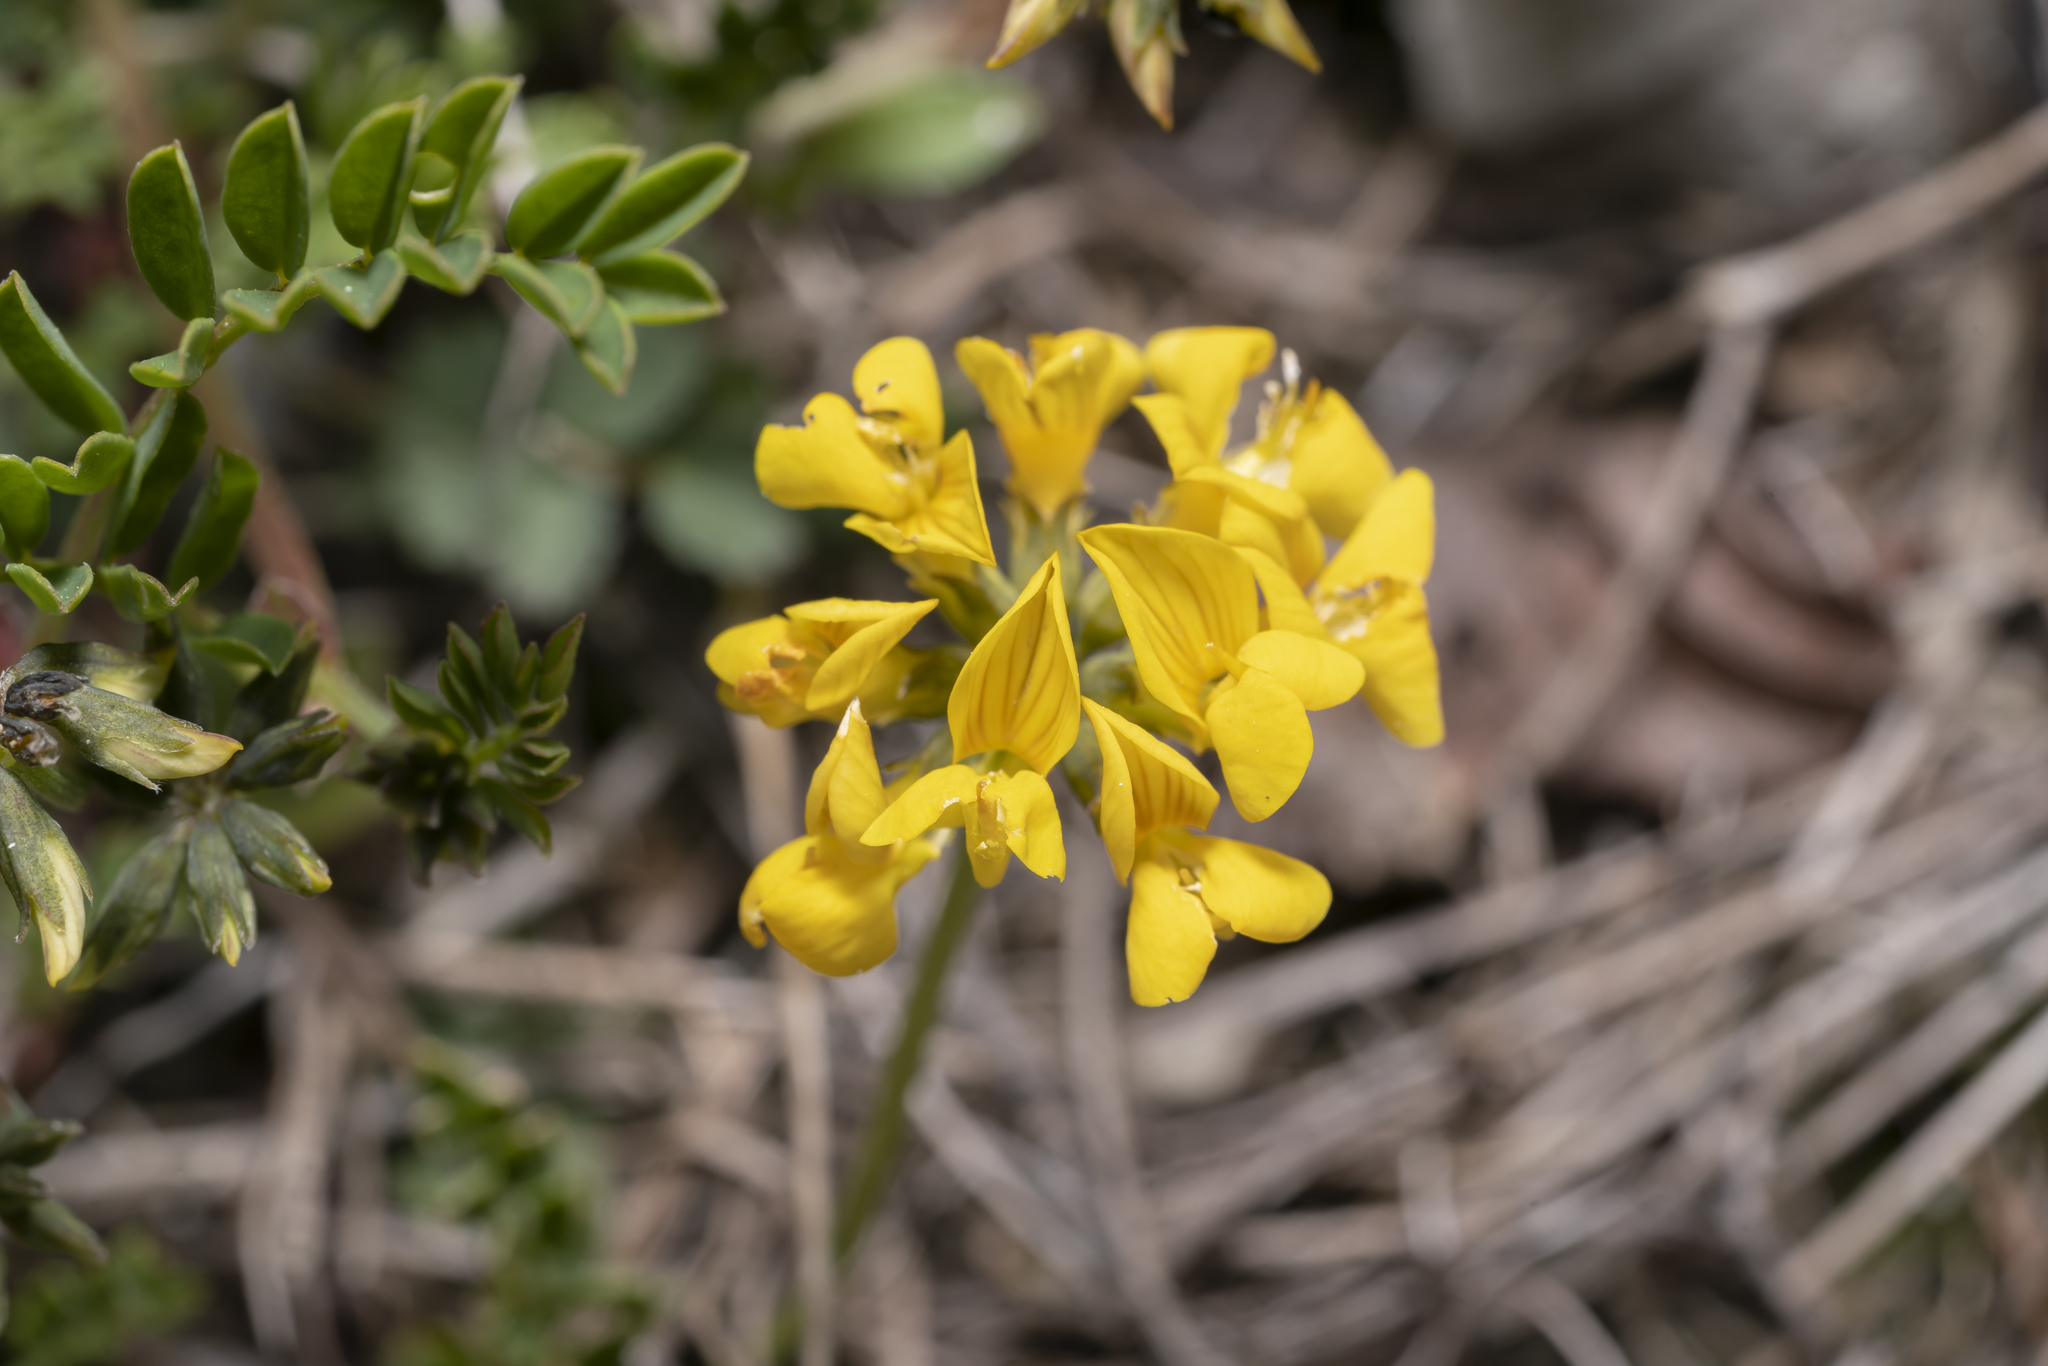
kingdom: Plantae
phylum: Tracheophyta
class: Magnoliopsida
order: Fabales
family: Fabaceae
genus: Hippocrepis
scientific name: Hippocrepis comosa
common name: Horseshoe vetch
